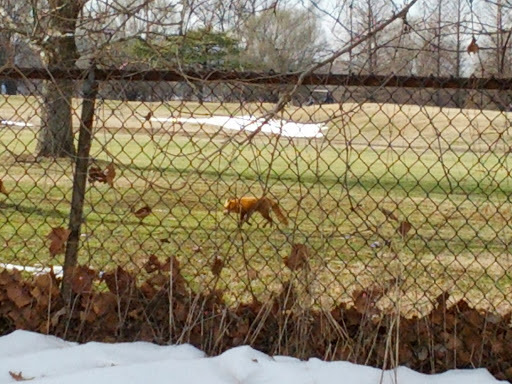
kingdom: Animalia
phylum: Chordata
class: Mammalia
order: Carnivora
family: Canidae
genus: Vulpes
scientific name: Vulpes vulpes
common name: Red fox
